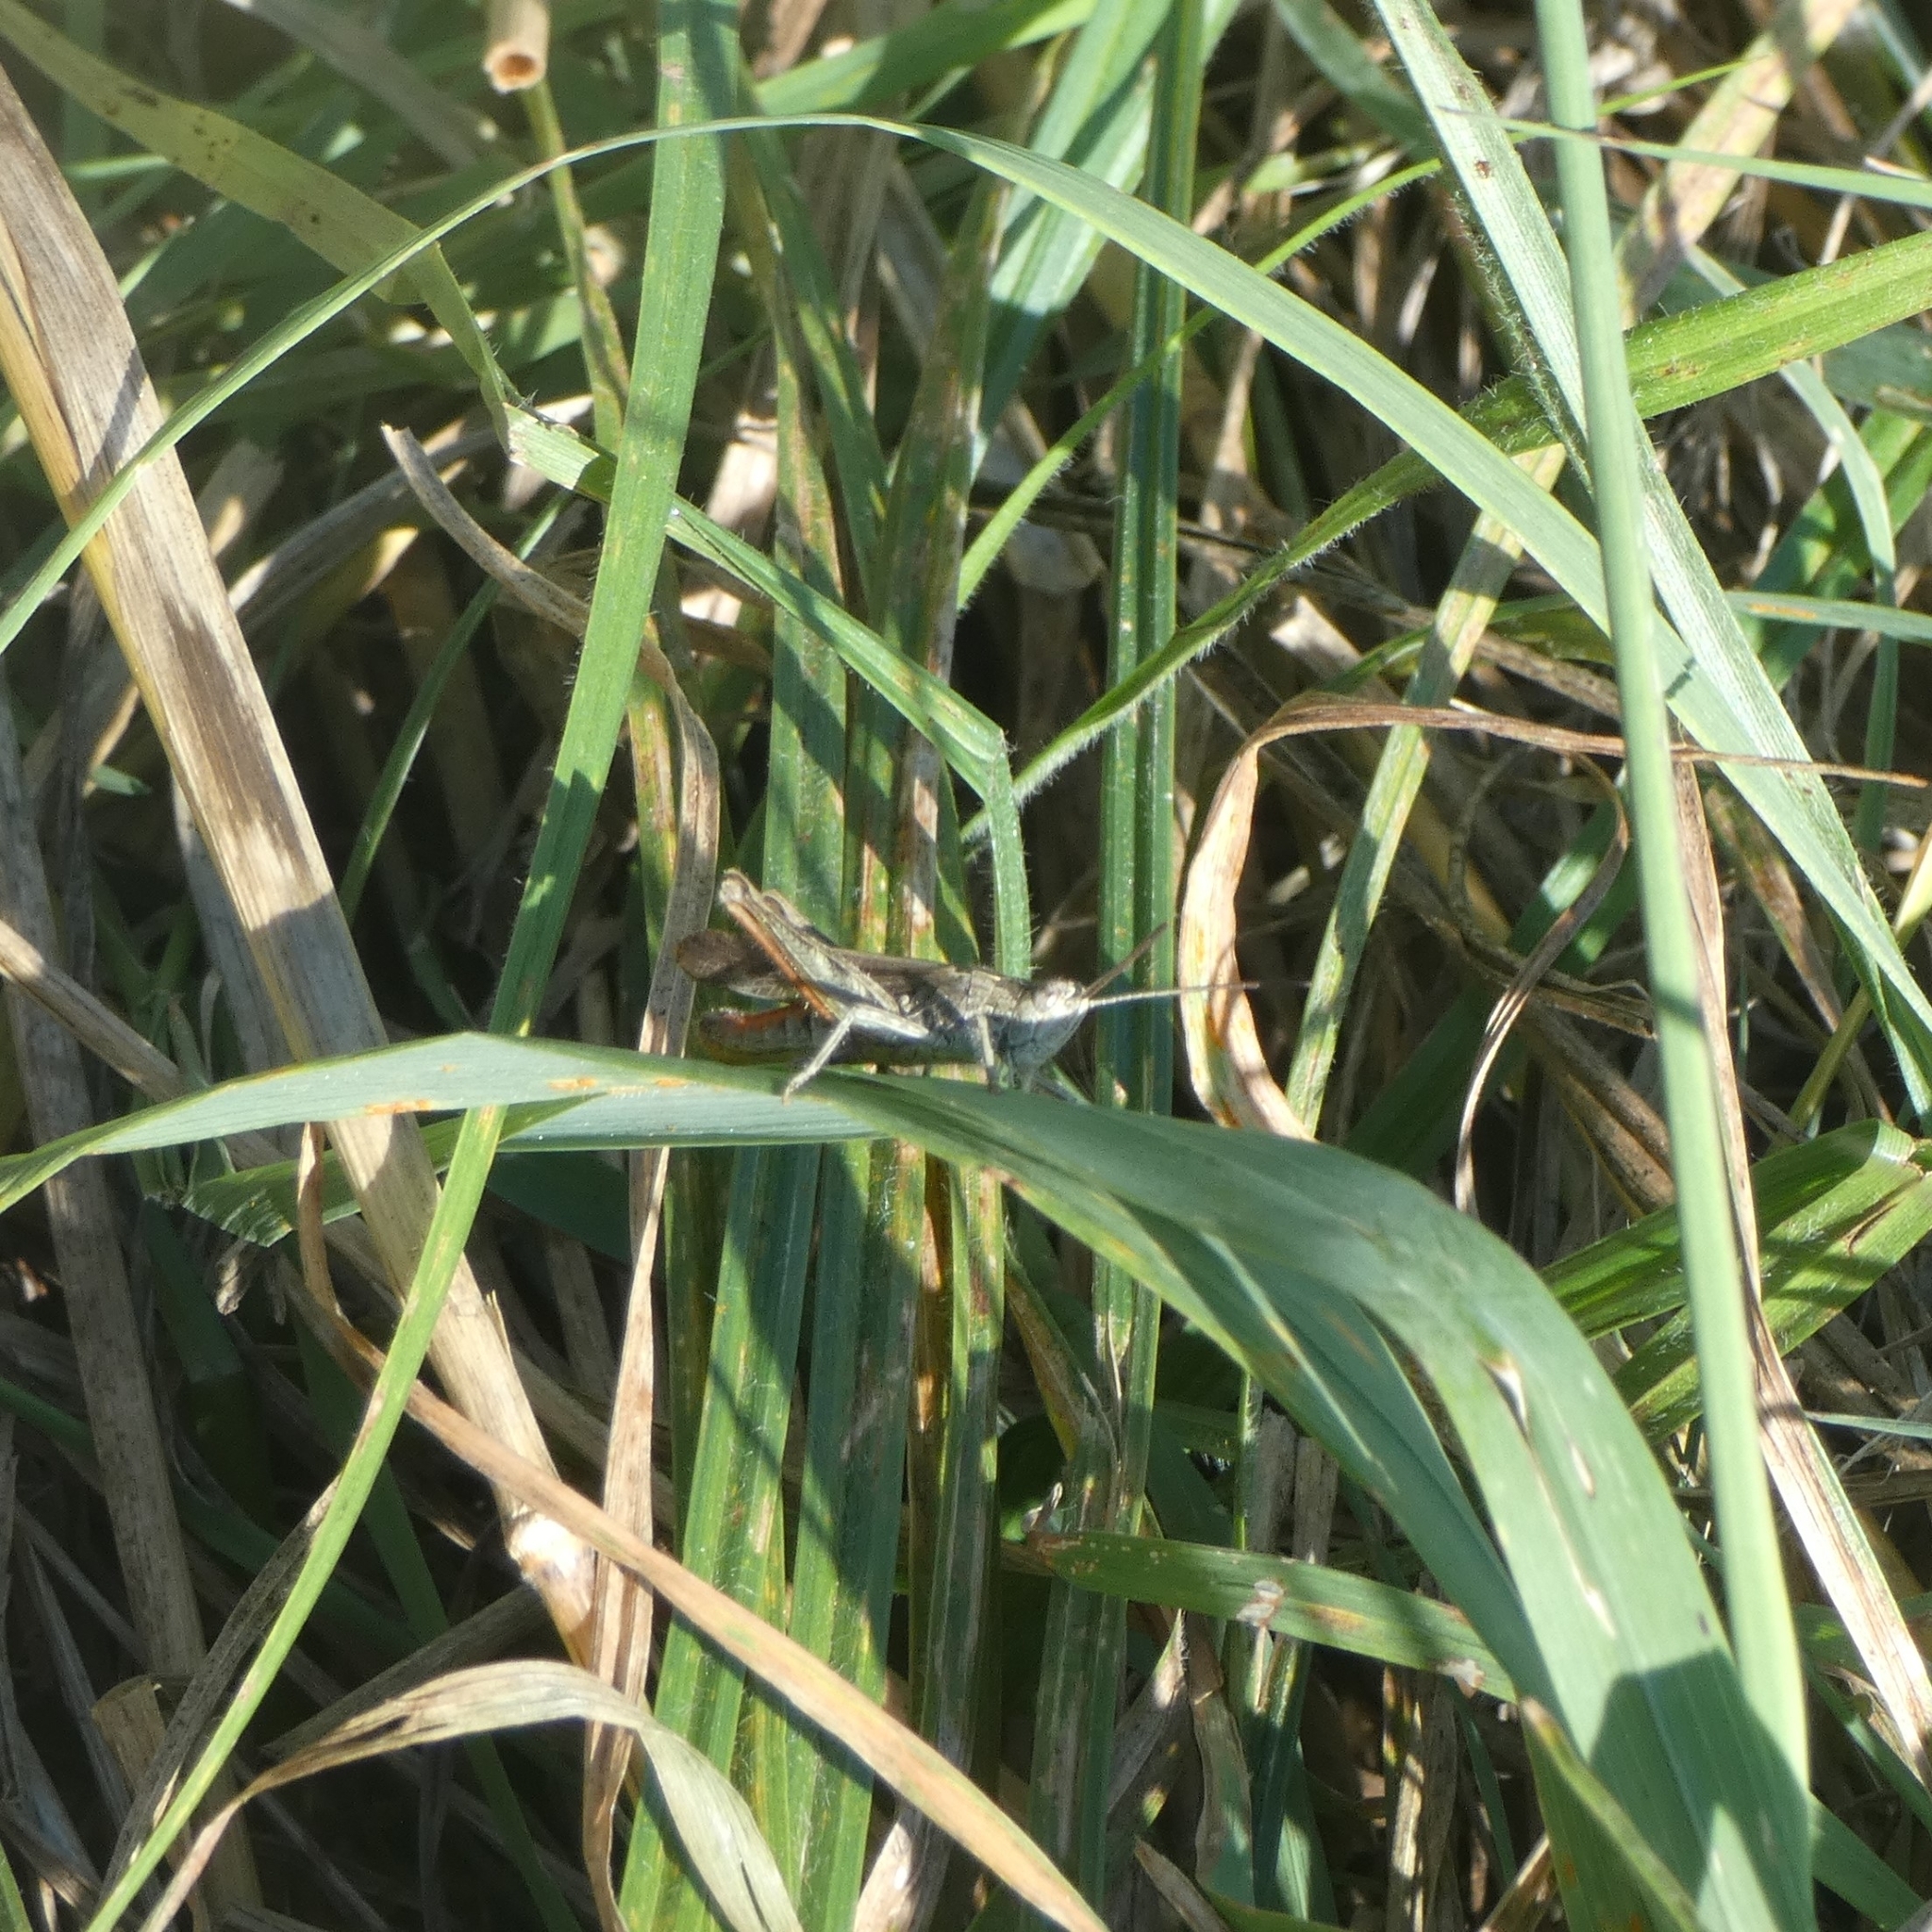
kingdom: Animalia
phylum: Arthropoda
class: Insecta
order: Orthoptera
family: Acrididae
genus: Chorthippus
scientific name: Chorthippus brunneus
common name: Field grasshopper
